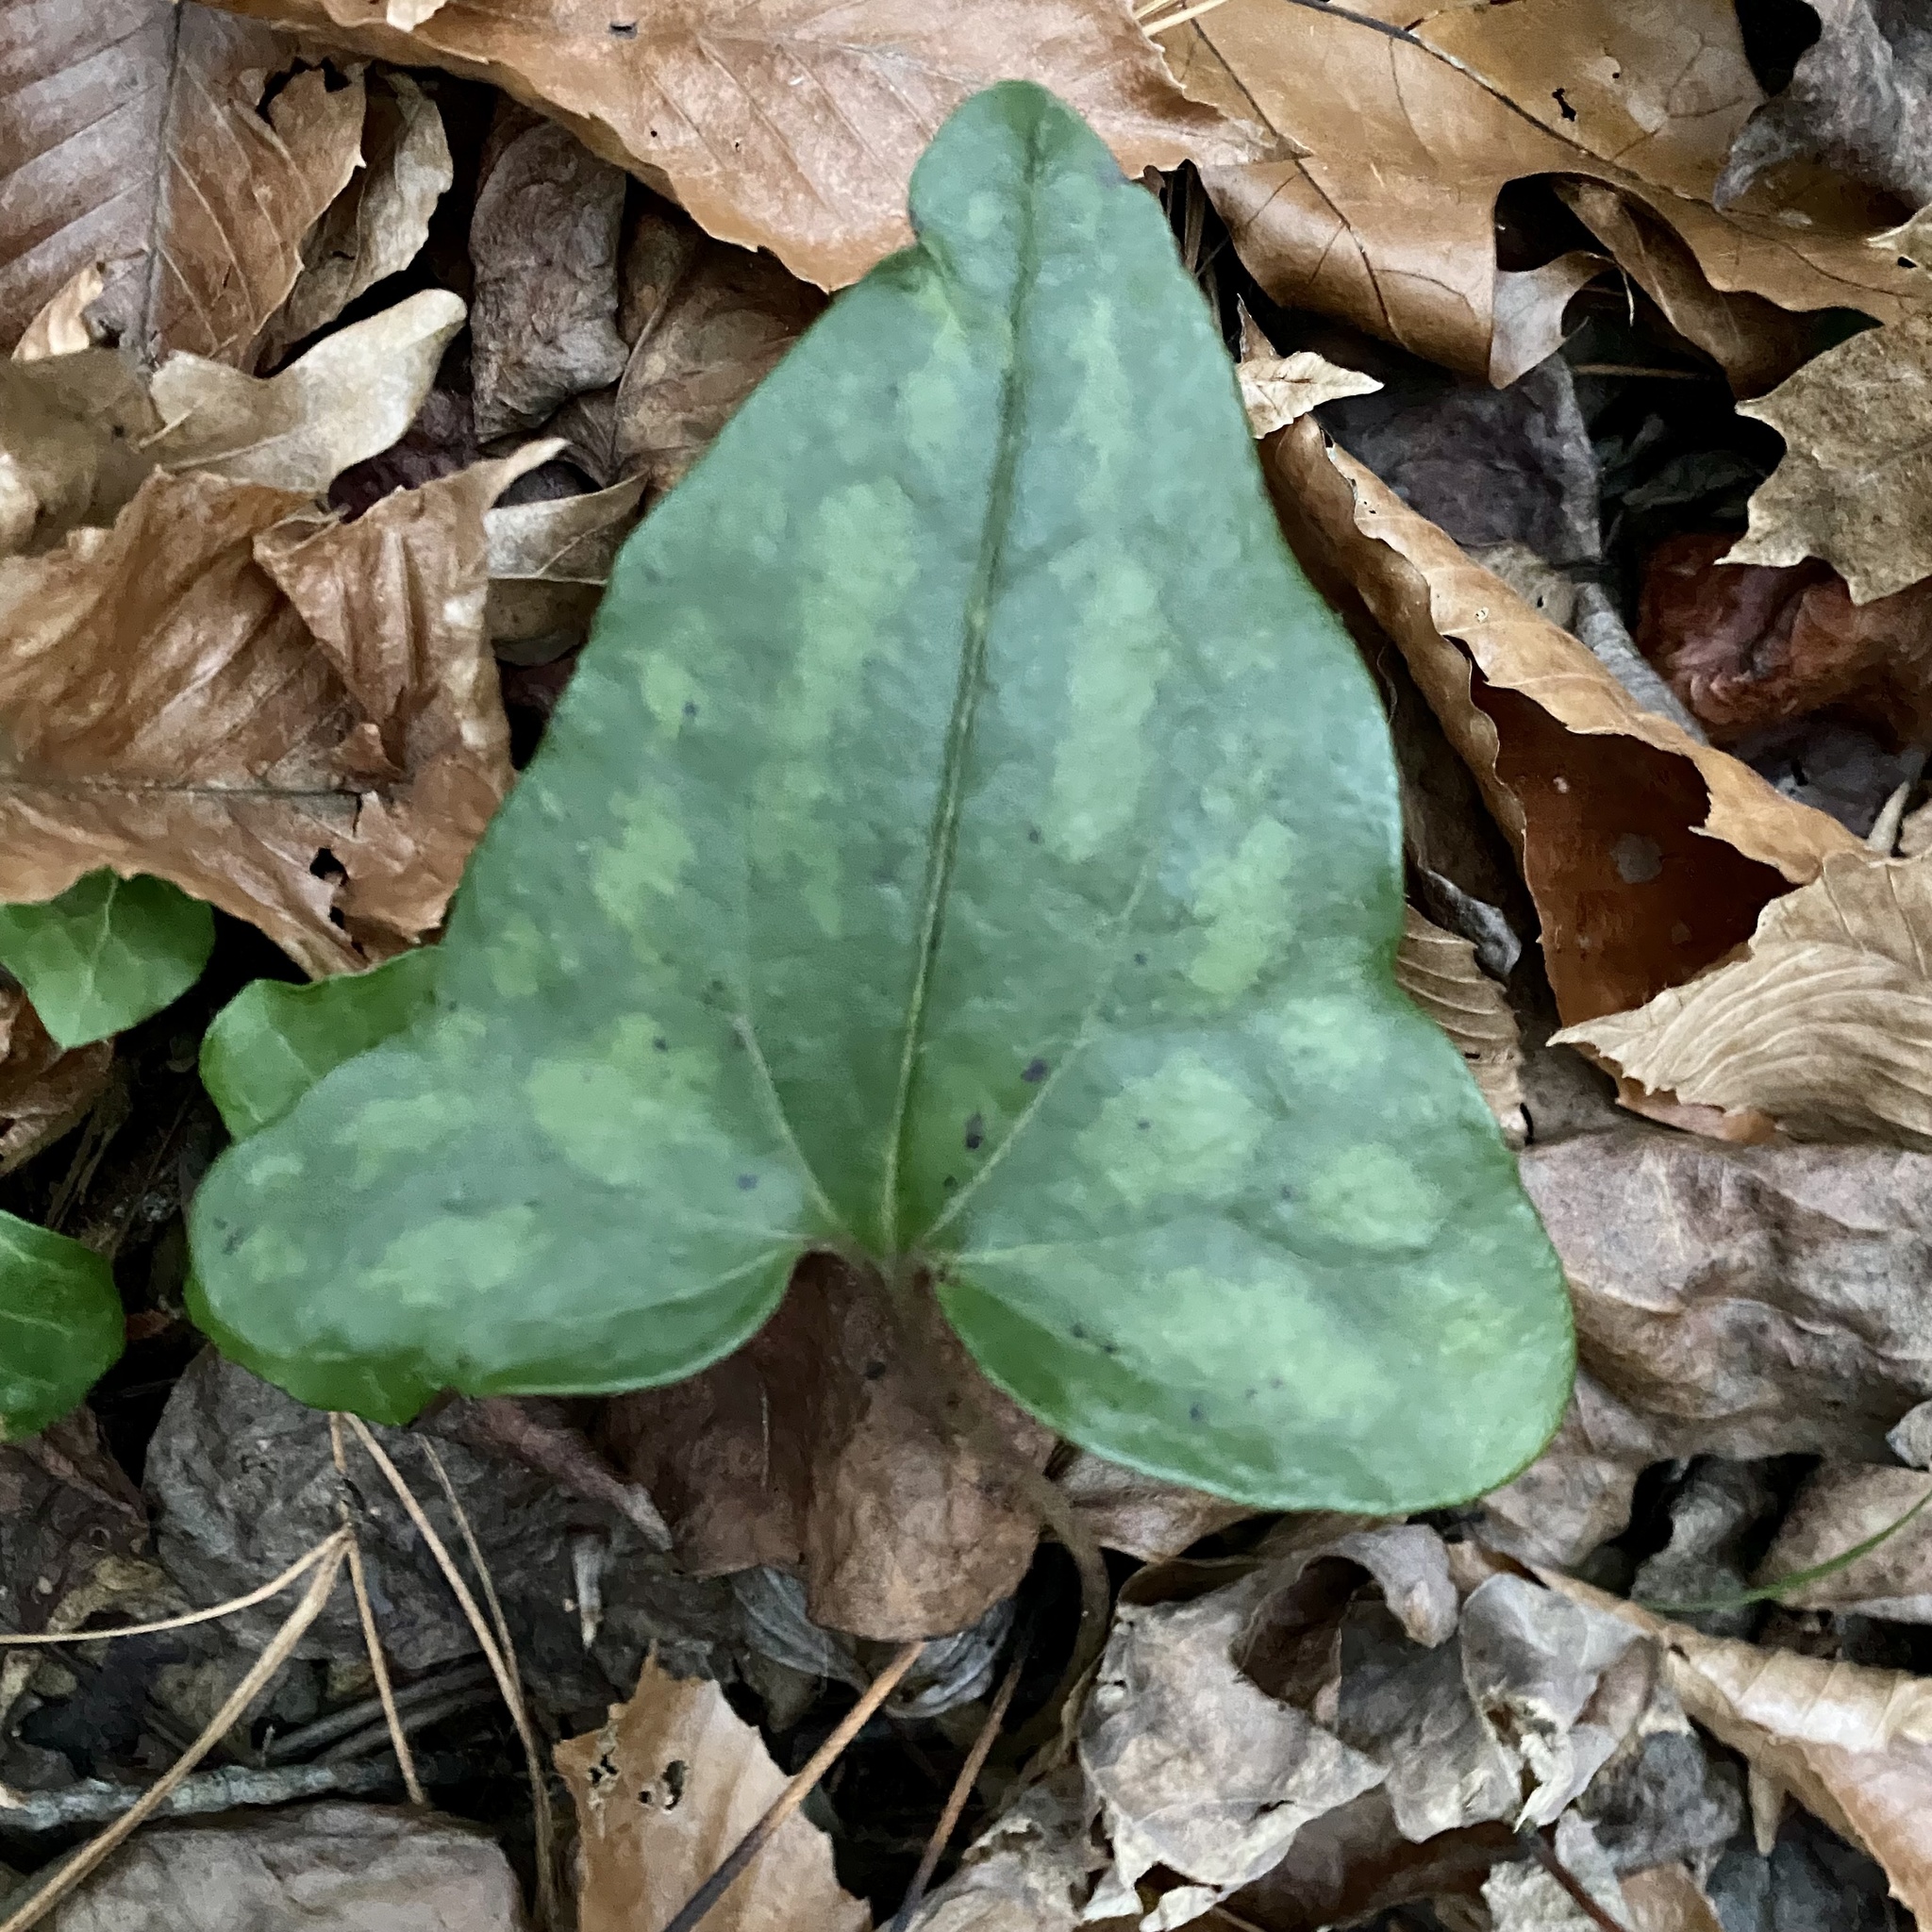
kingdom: Plantae
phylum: Tracheophyta
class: Magnoliopsida
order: Piperales
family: Aristolochiaceae
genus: Hexastylis
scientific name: Hexastylis arifolia
